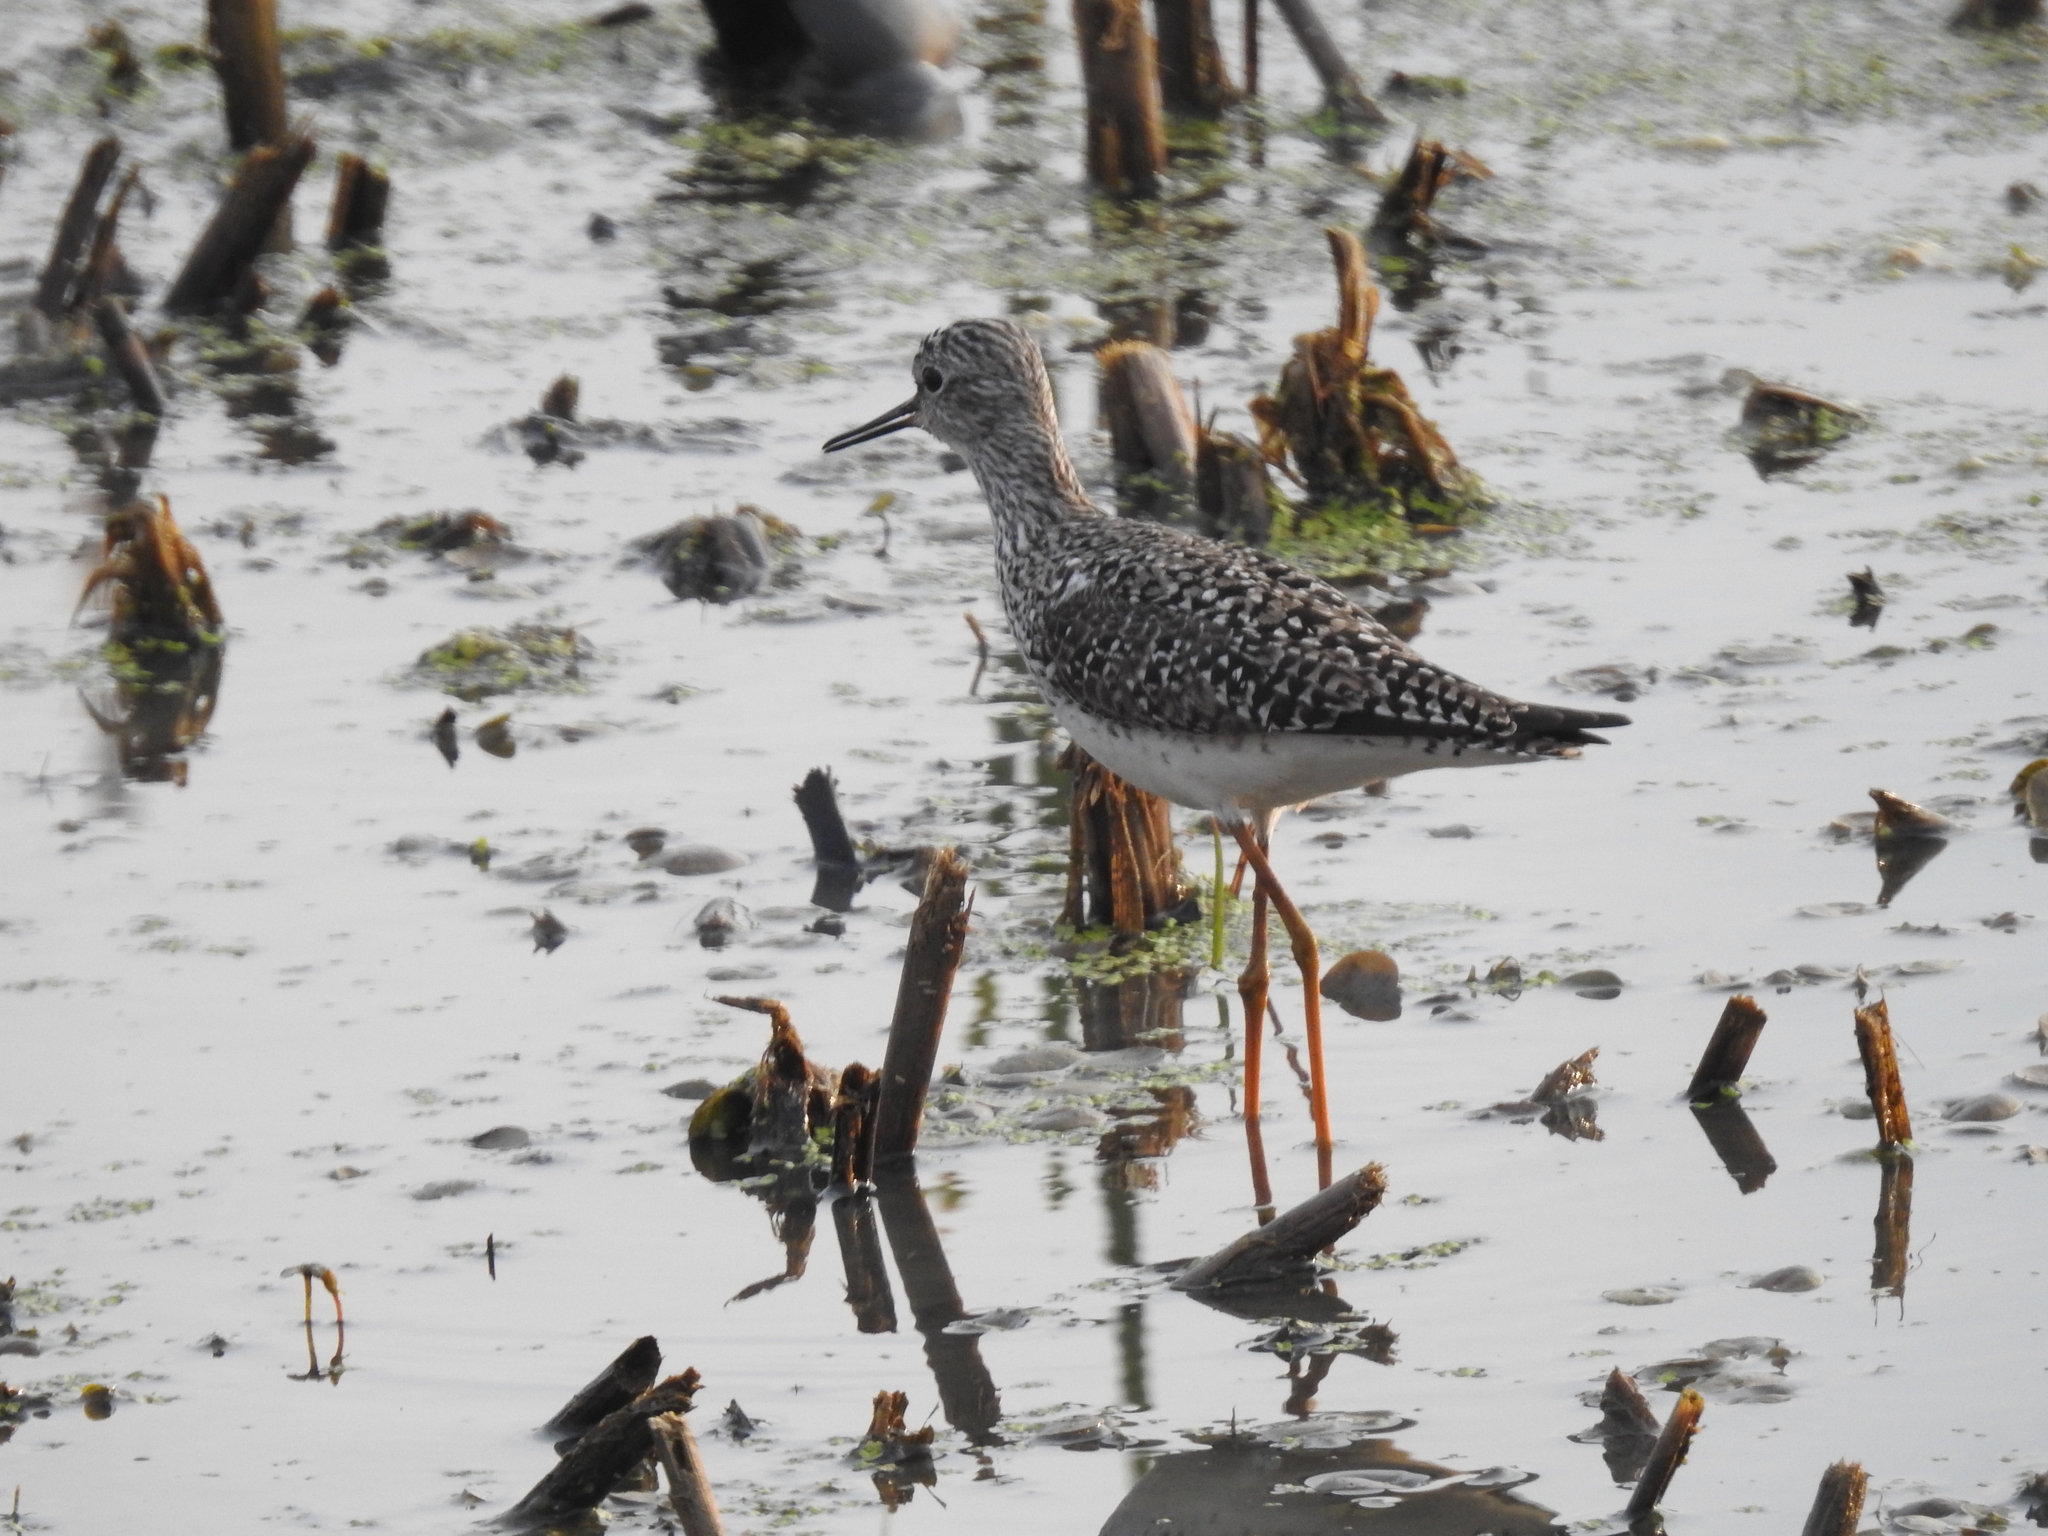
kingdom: Animalia
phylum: Chordata
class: Aves
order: Charadriiformes
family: Scolopacidae
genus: Tringa
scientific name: Tringa flavipes
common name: Lesser yellowlegs
